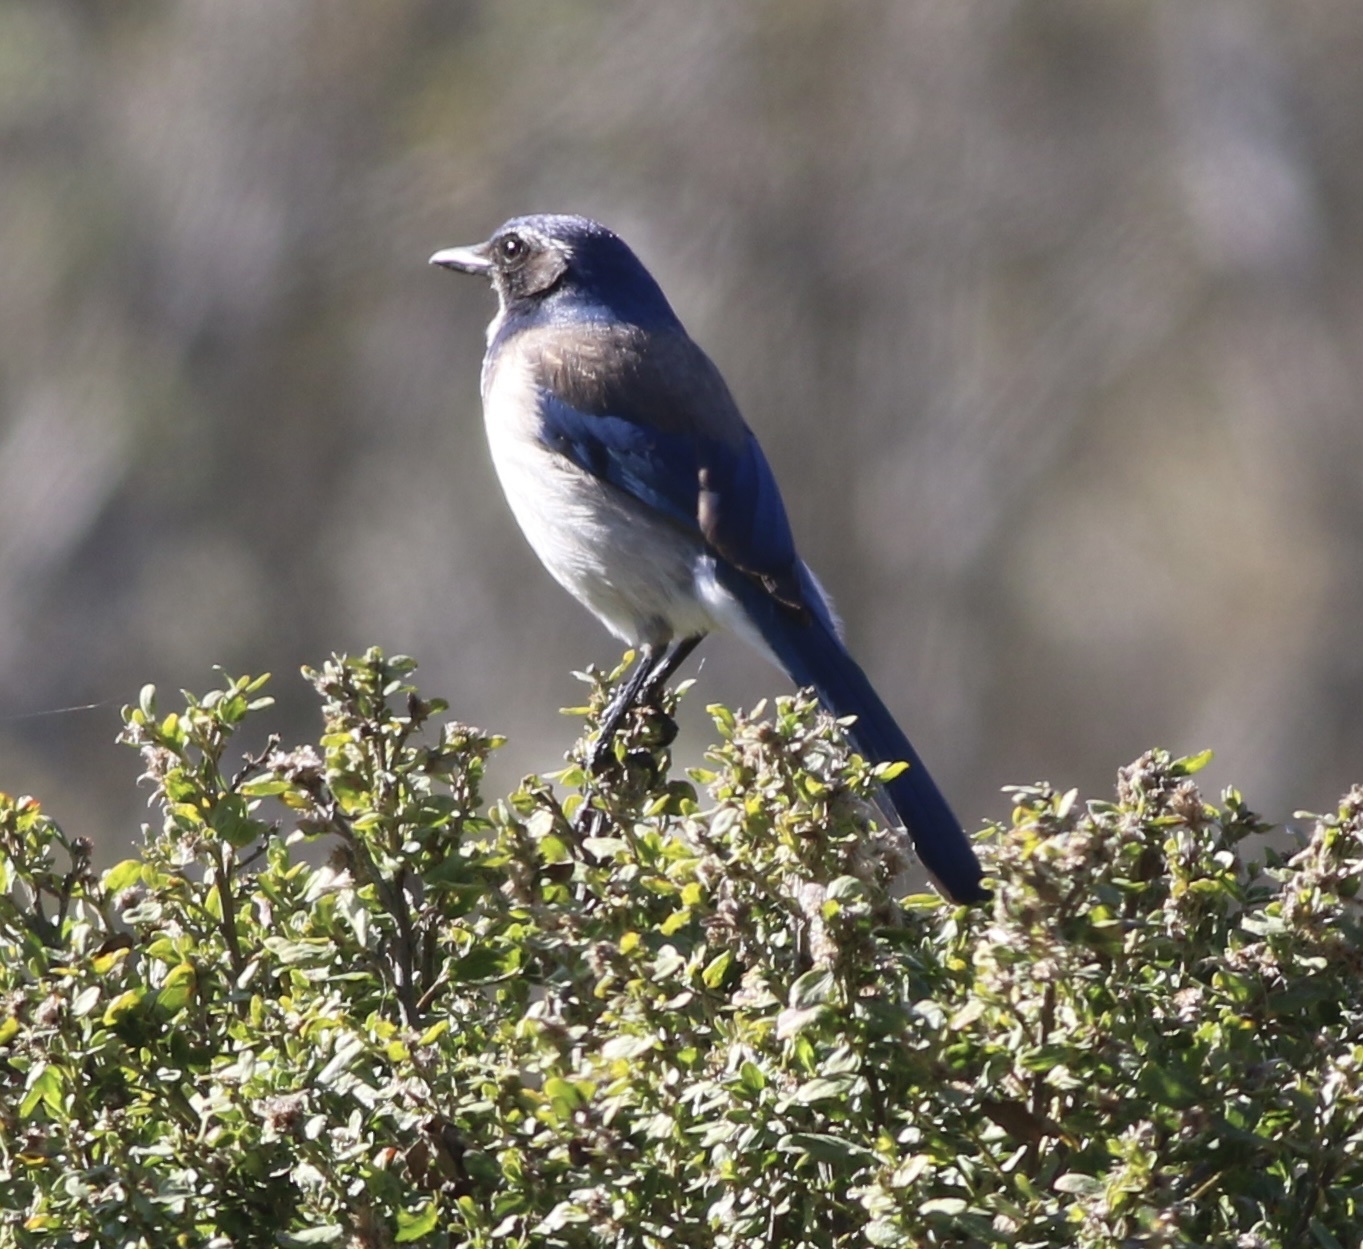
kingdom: Animalia
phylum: Chordata
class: Aves
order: Passeriformes
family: Corvidae
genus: Aphelocoma
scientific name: Aphelocoma californica
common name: California scrub-jay
